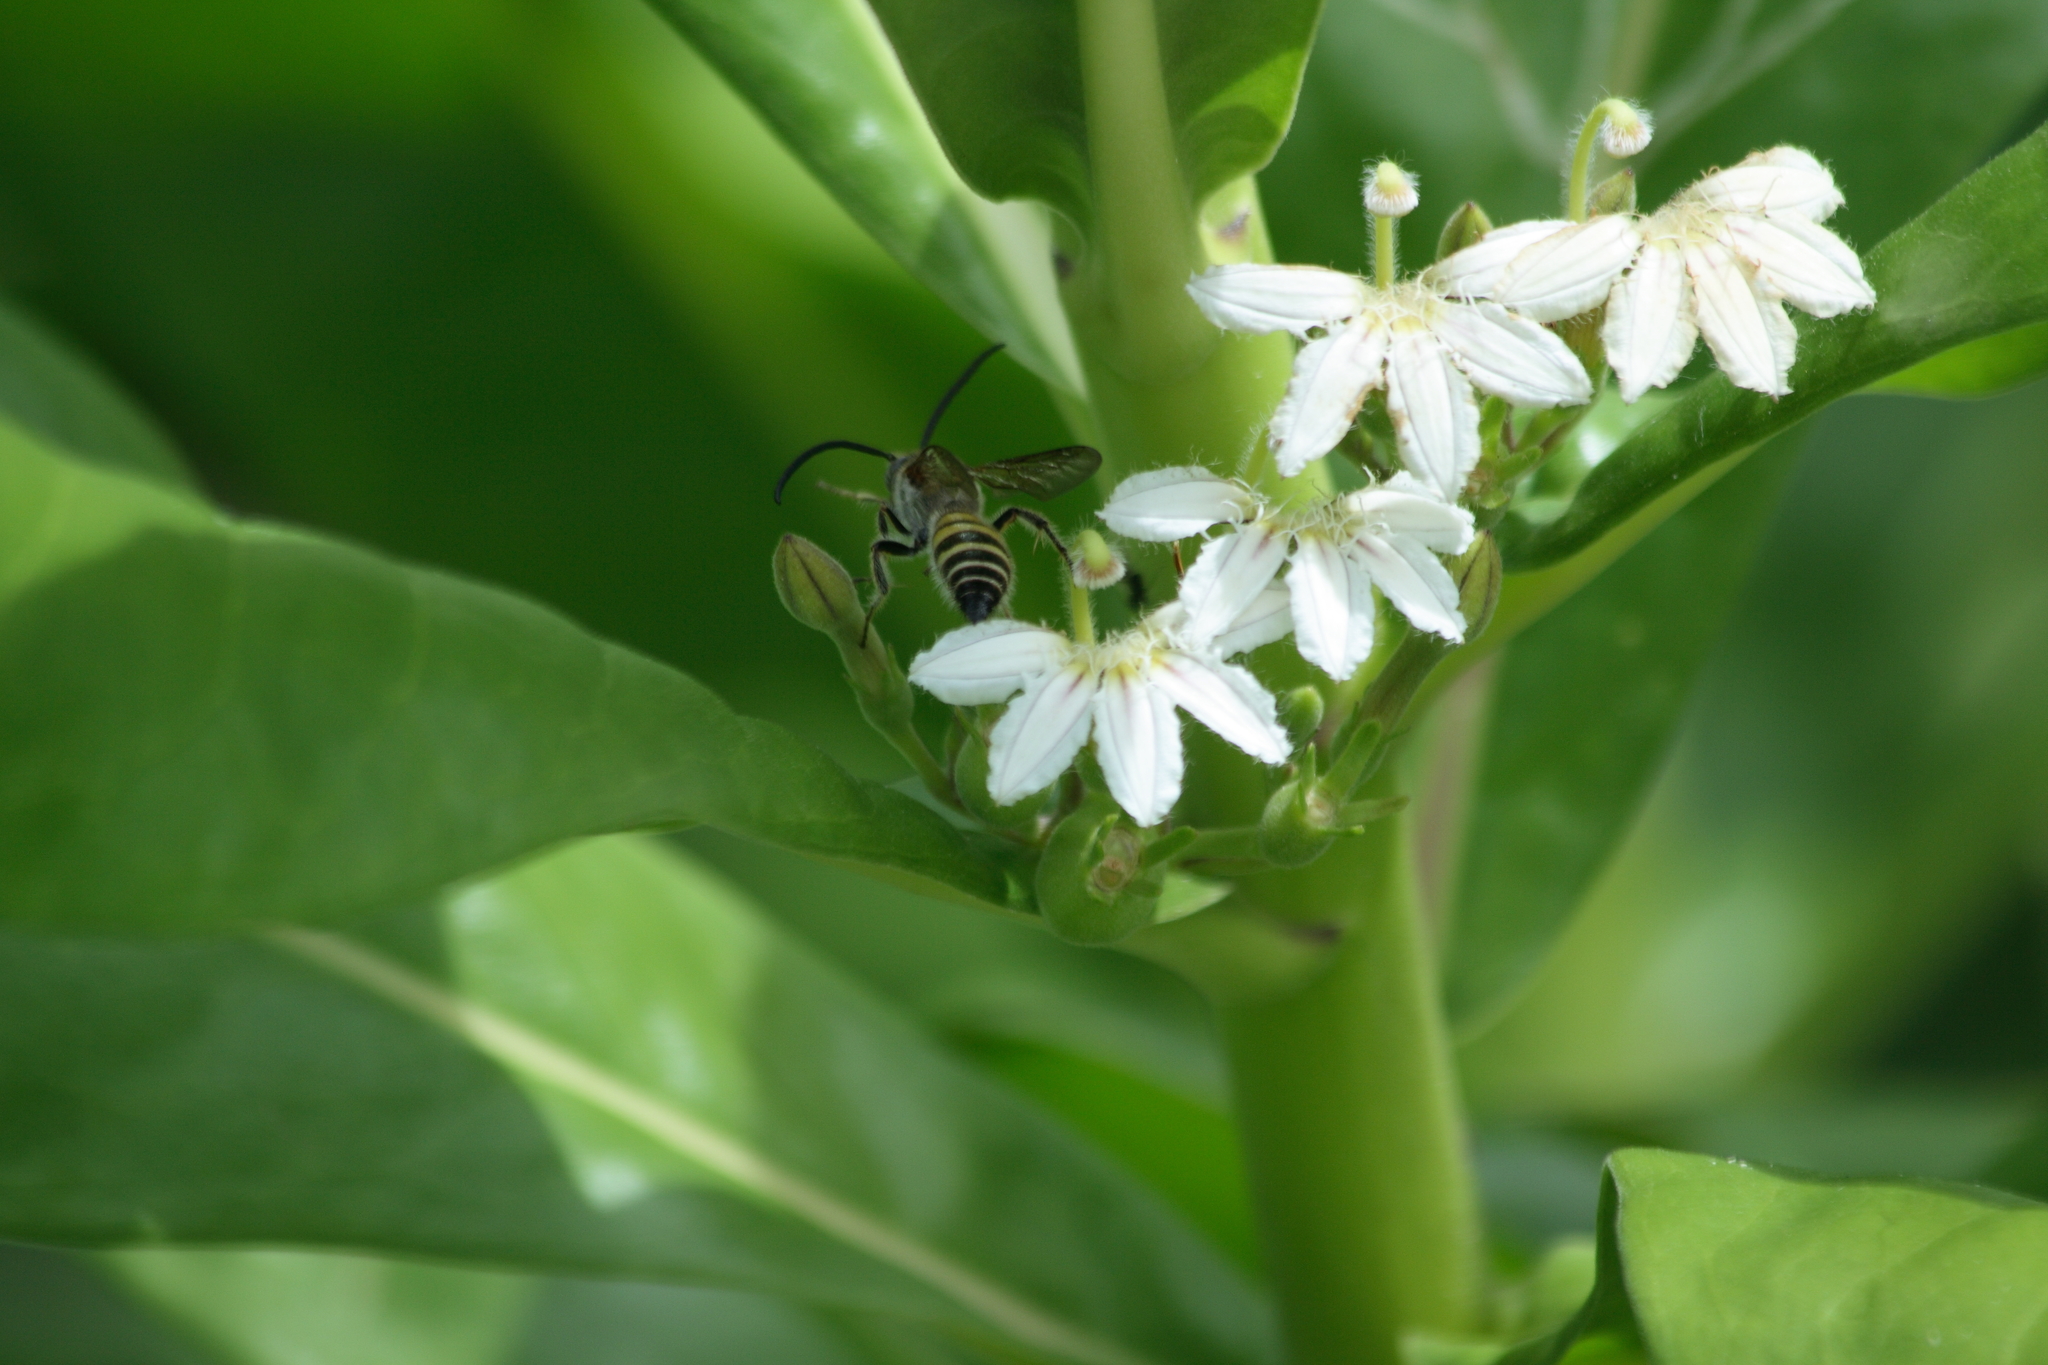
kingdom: Plantae
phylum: Tracheophyta
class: Magnoliopsida
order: Asterales
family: Goodeniaceae
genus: Scaevola
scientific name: Scaevola taccada
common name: Sea lettucetree
